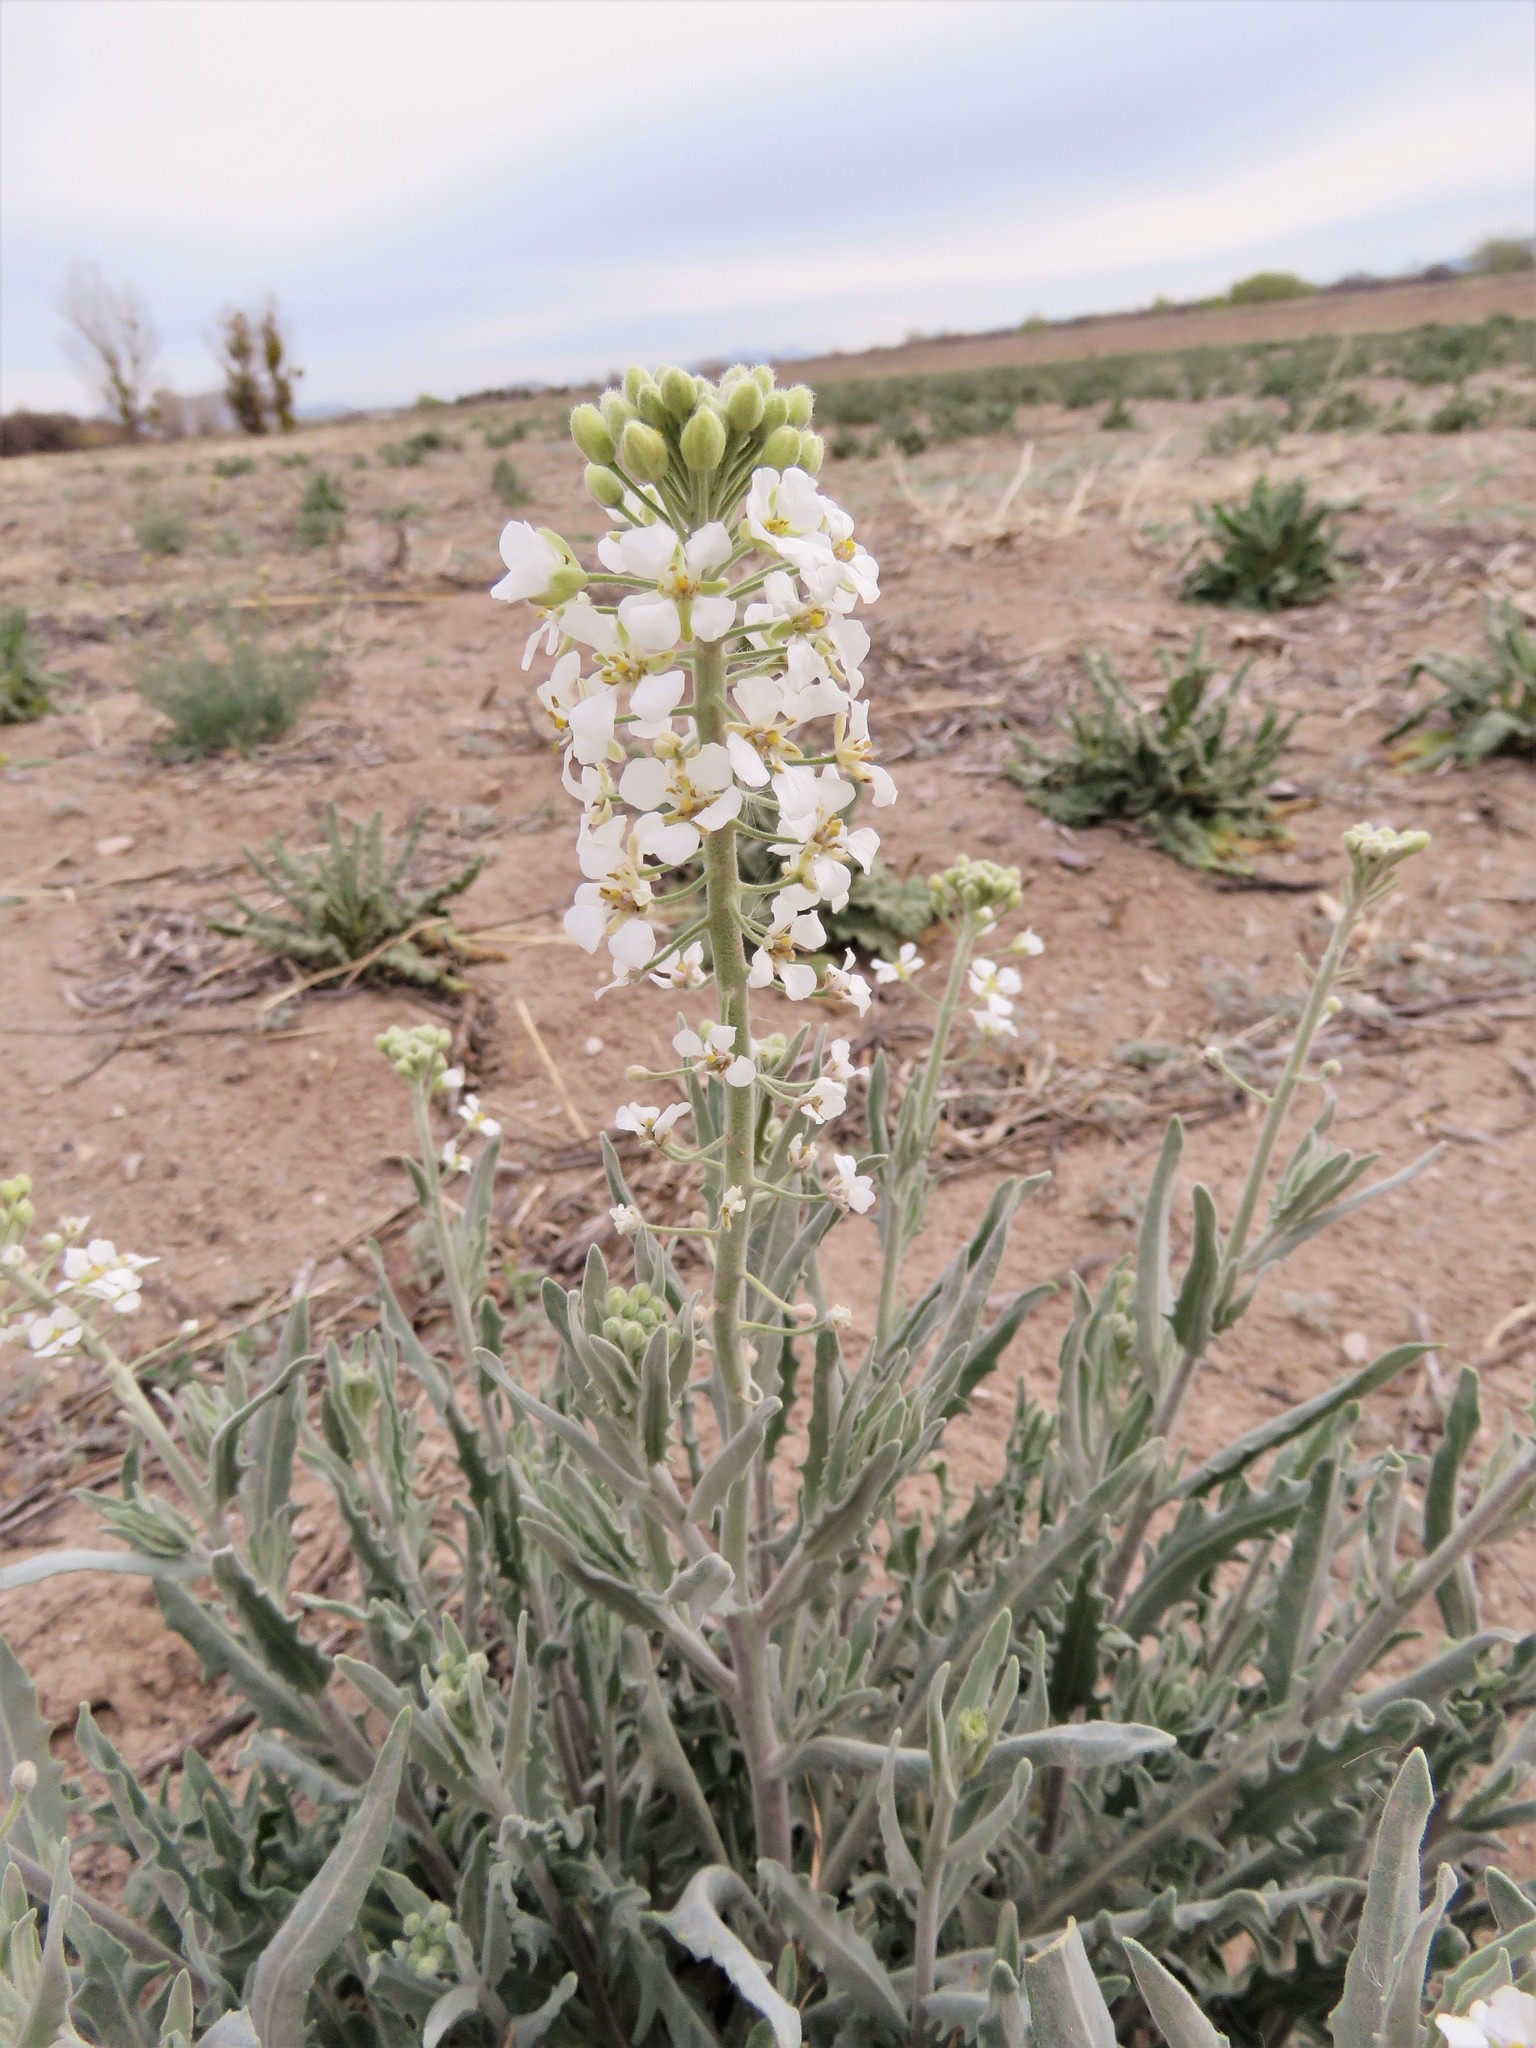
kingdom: Plantae
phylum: Tracheophyta
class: Magnoliopsida
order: Brassicales
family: Brassicaceae
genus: Dimorphocarpa
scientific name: Dimorphocarpa wislizenii
